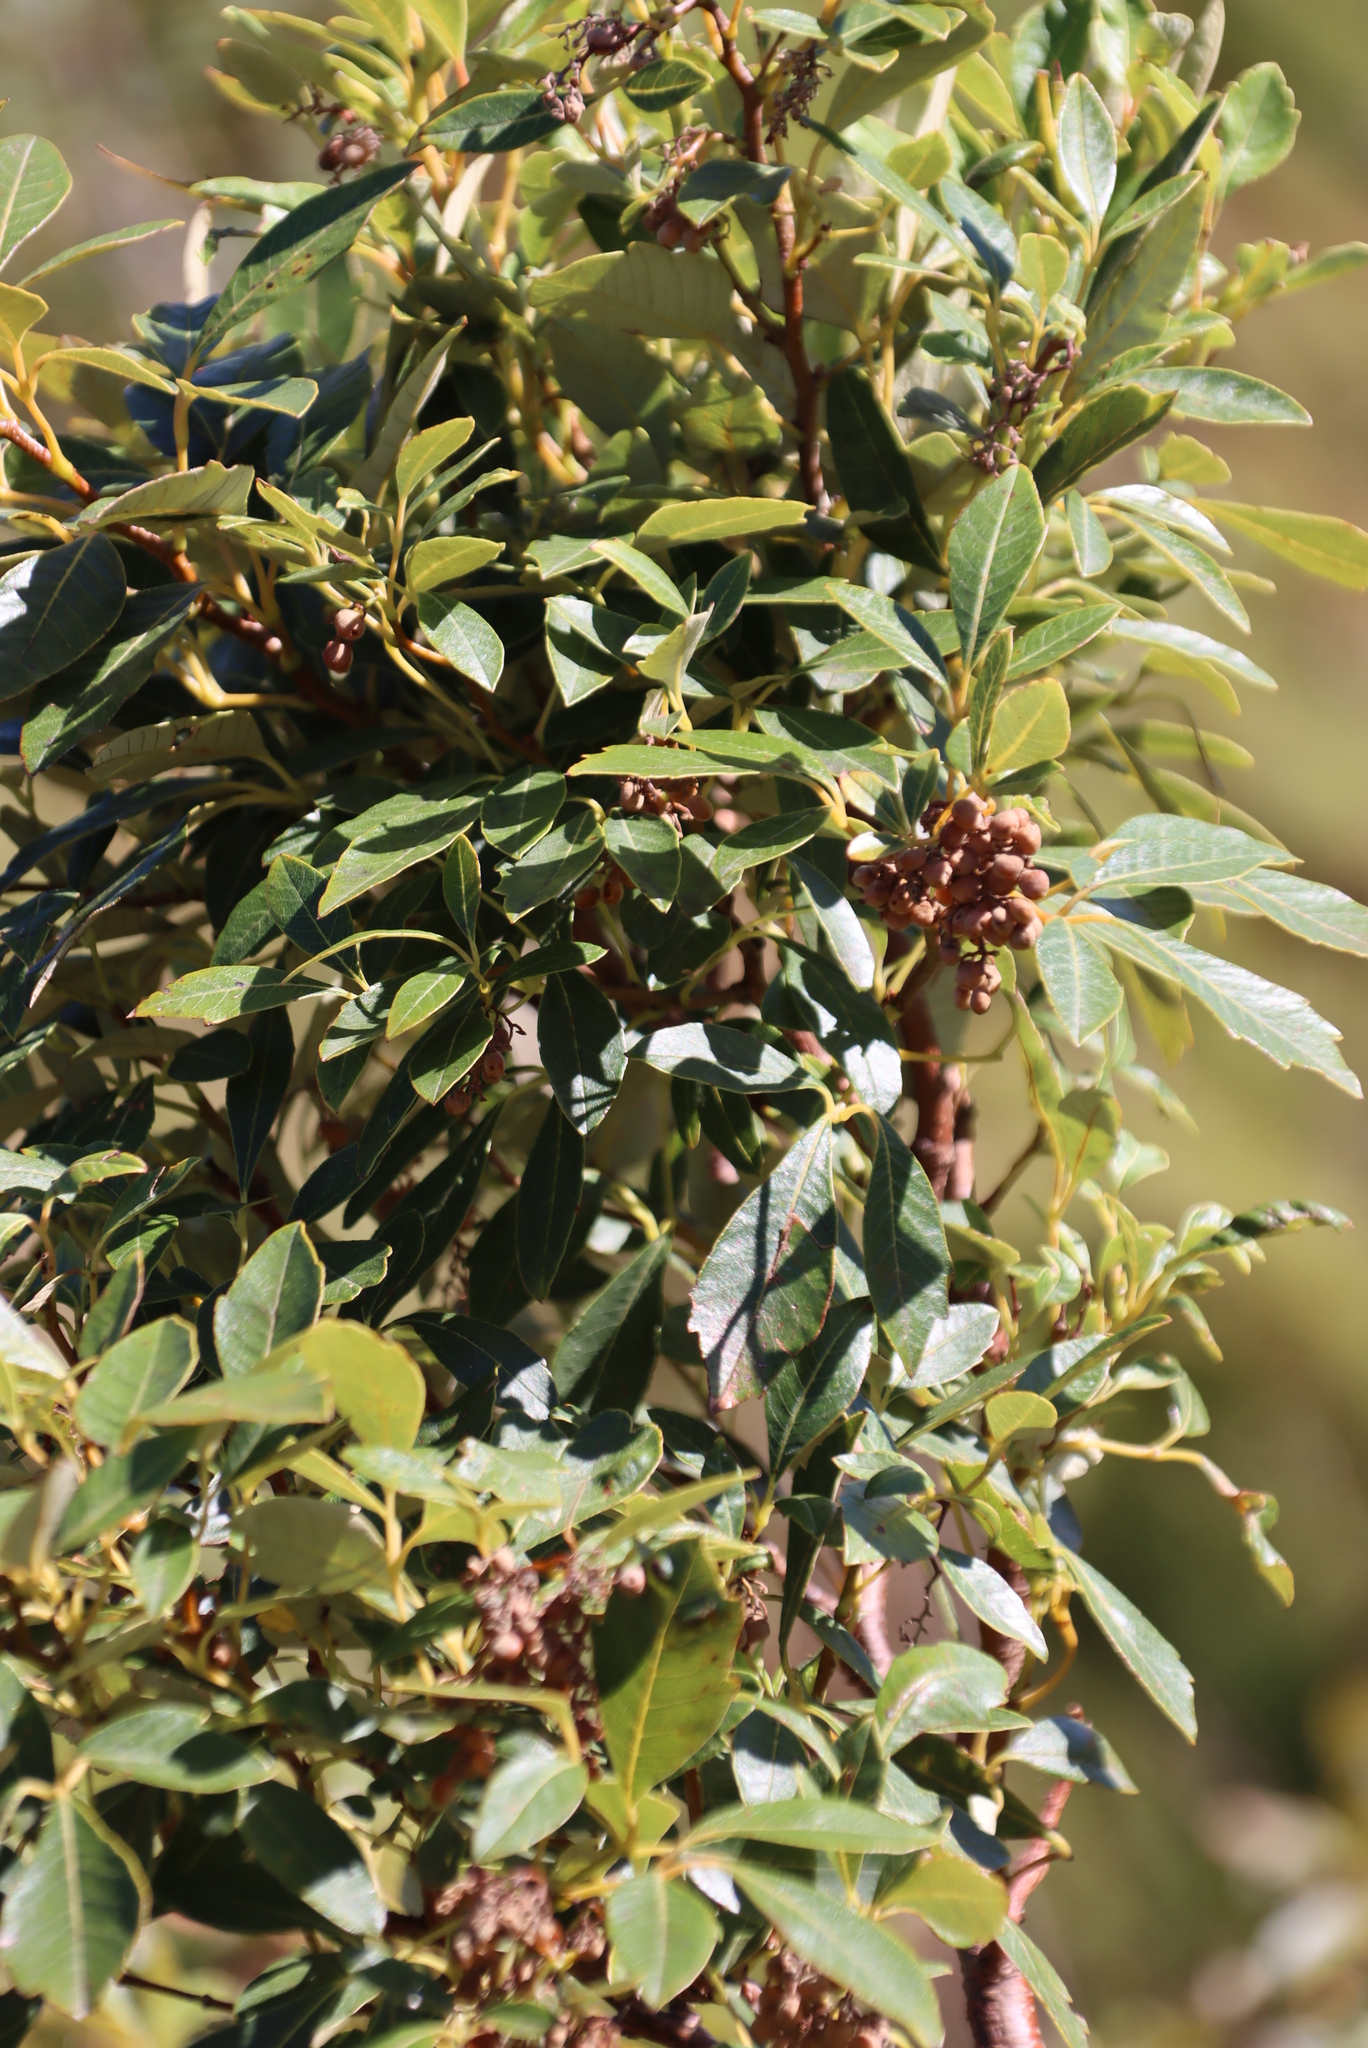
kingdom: Plantae
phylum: Tracheophyta
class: Magnoliopsida
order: Sapindales
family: Anacardiaceae
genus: Searsia
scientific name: Searsia tomentosa
